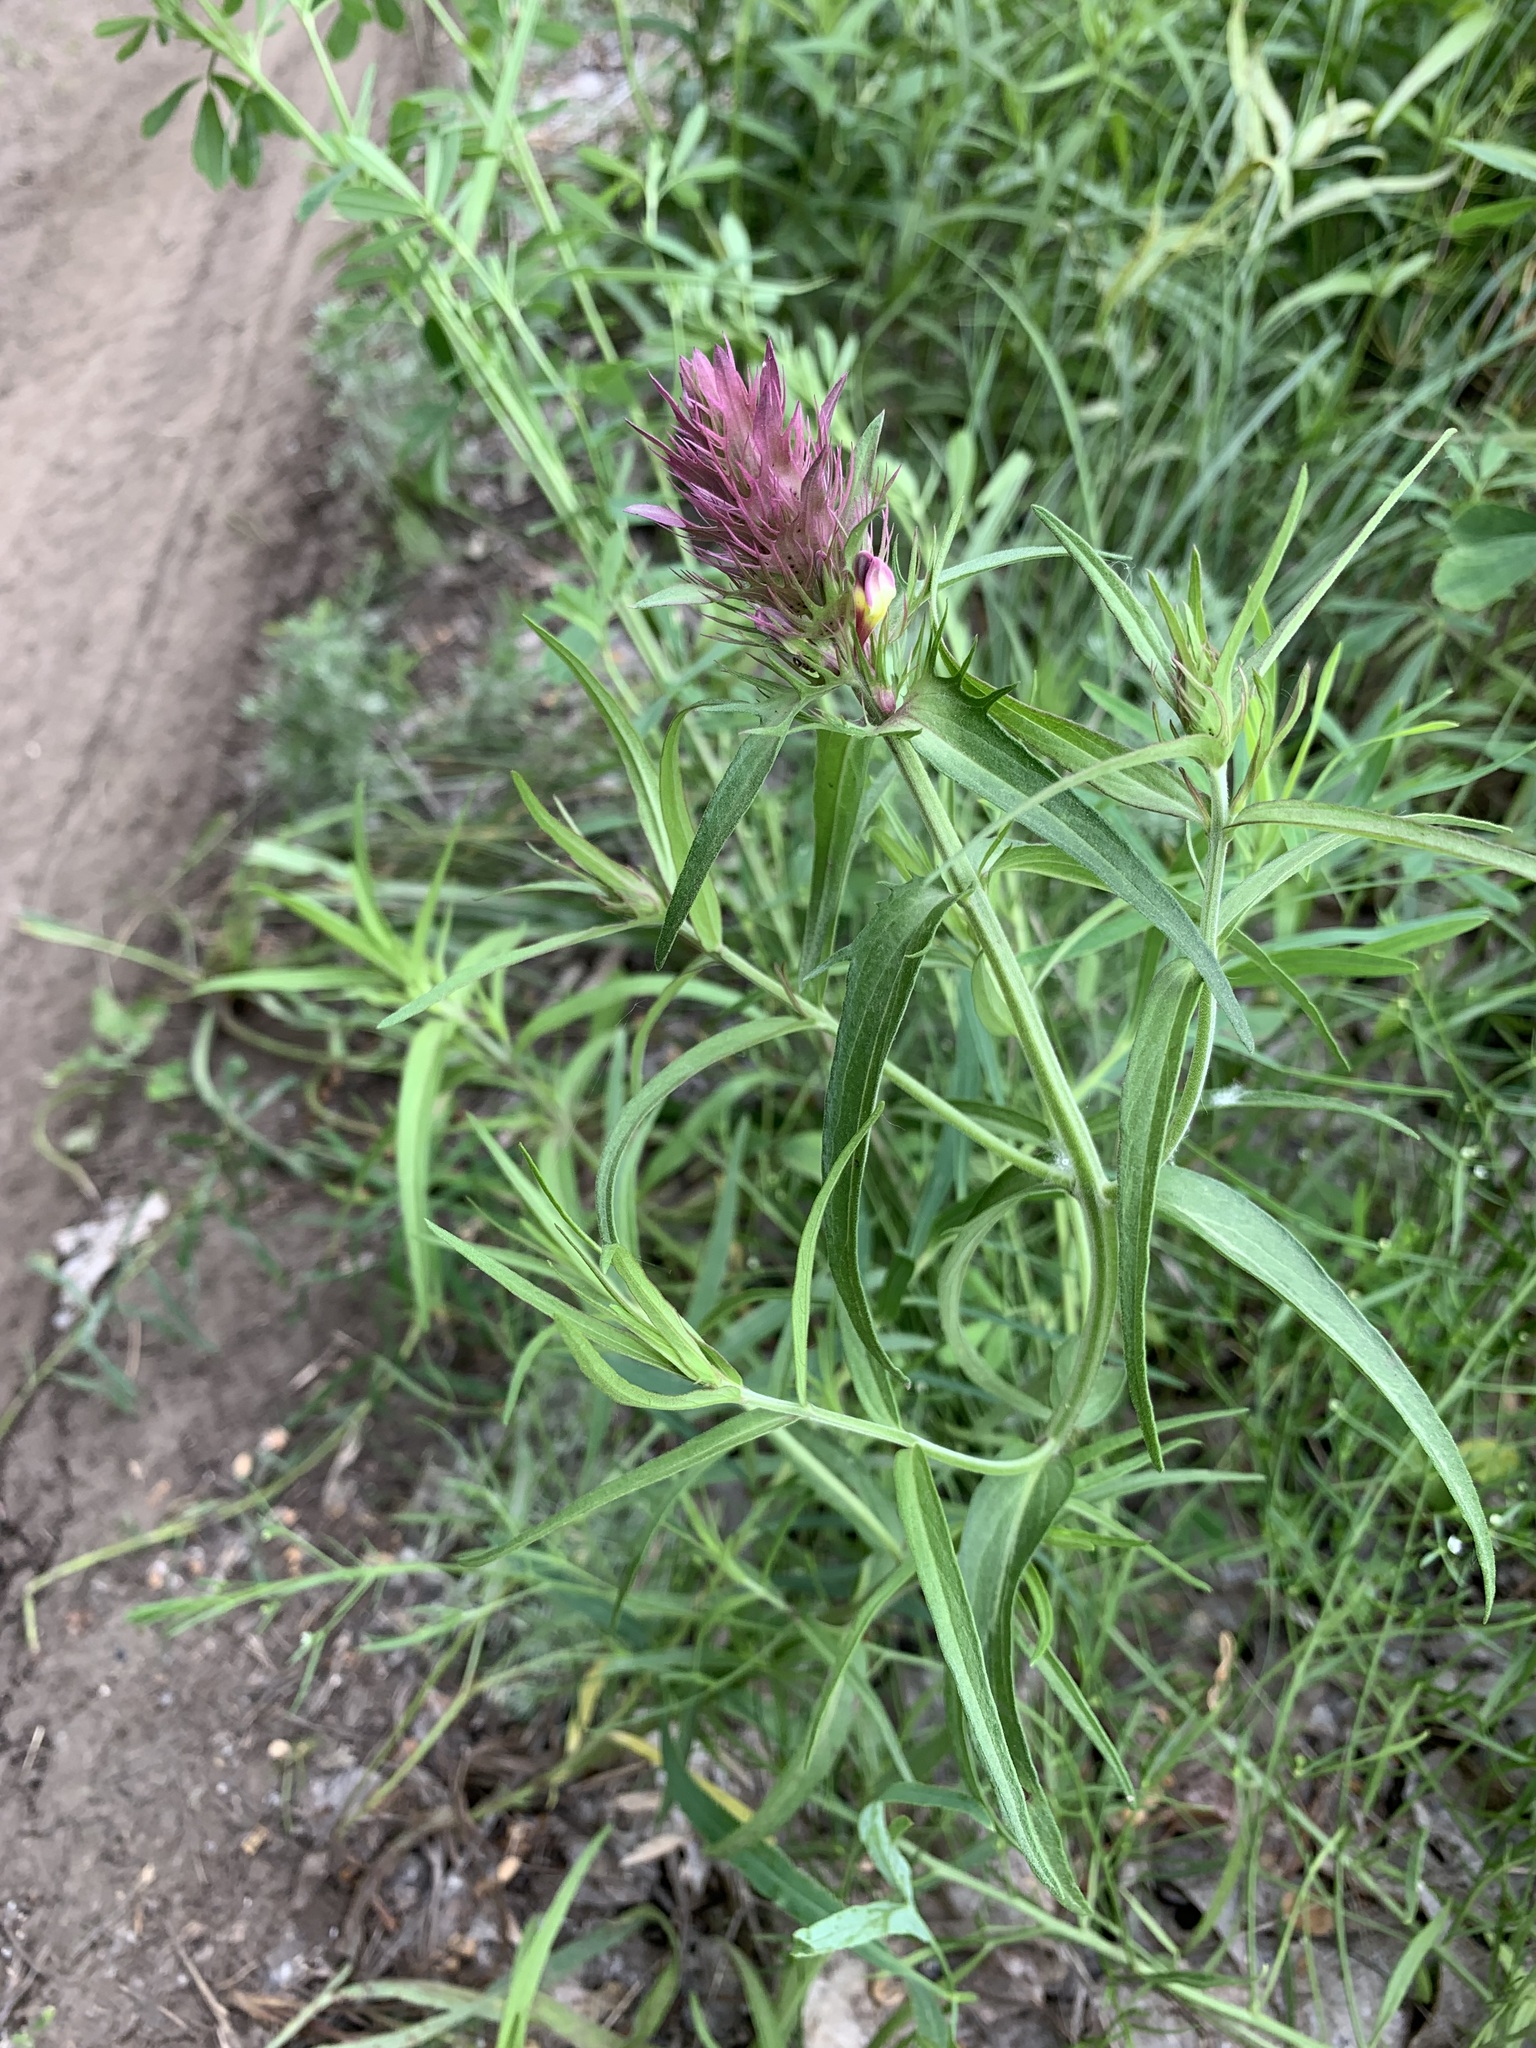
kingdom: Plantae
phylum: Tracheophyta
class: Magnoliopsida
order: Lamiales
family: Orobanchaceae
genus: Melampyrum
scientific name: Melampyrum arvense
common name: Field cow-wheat
